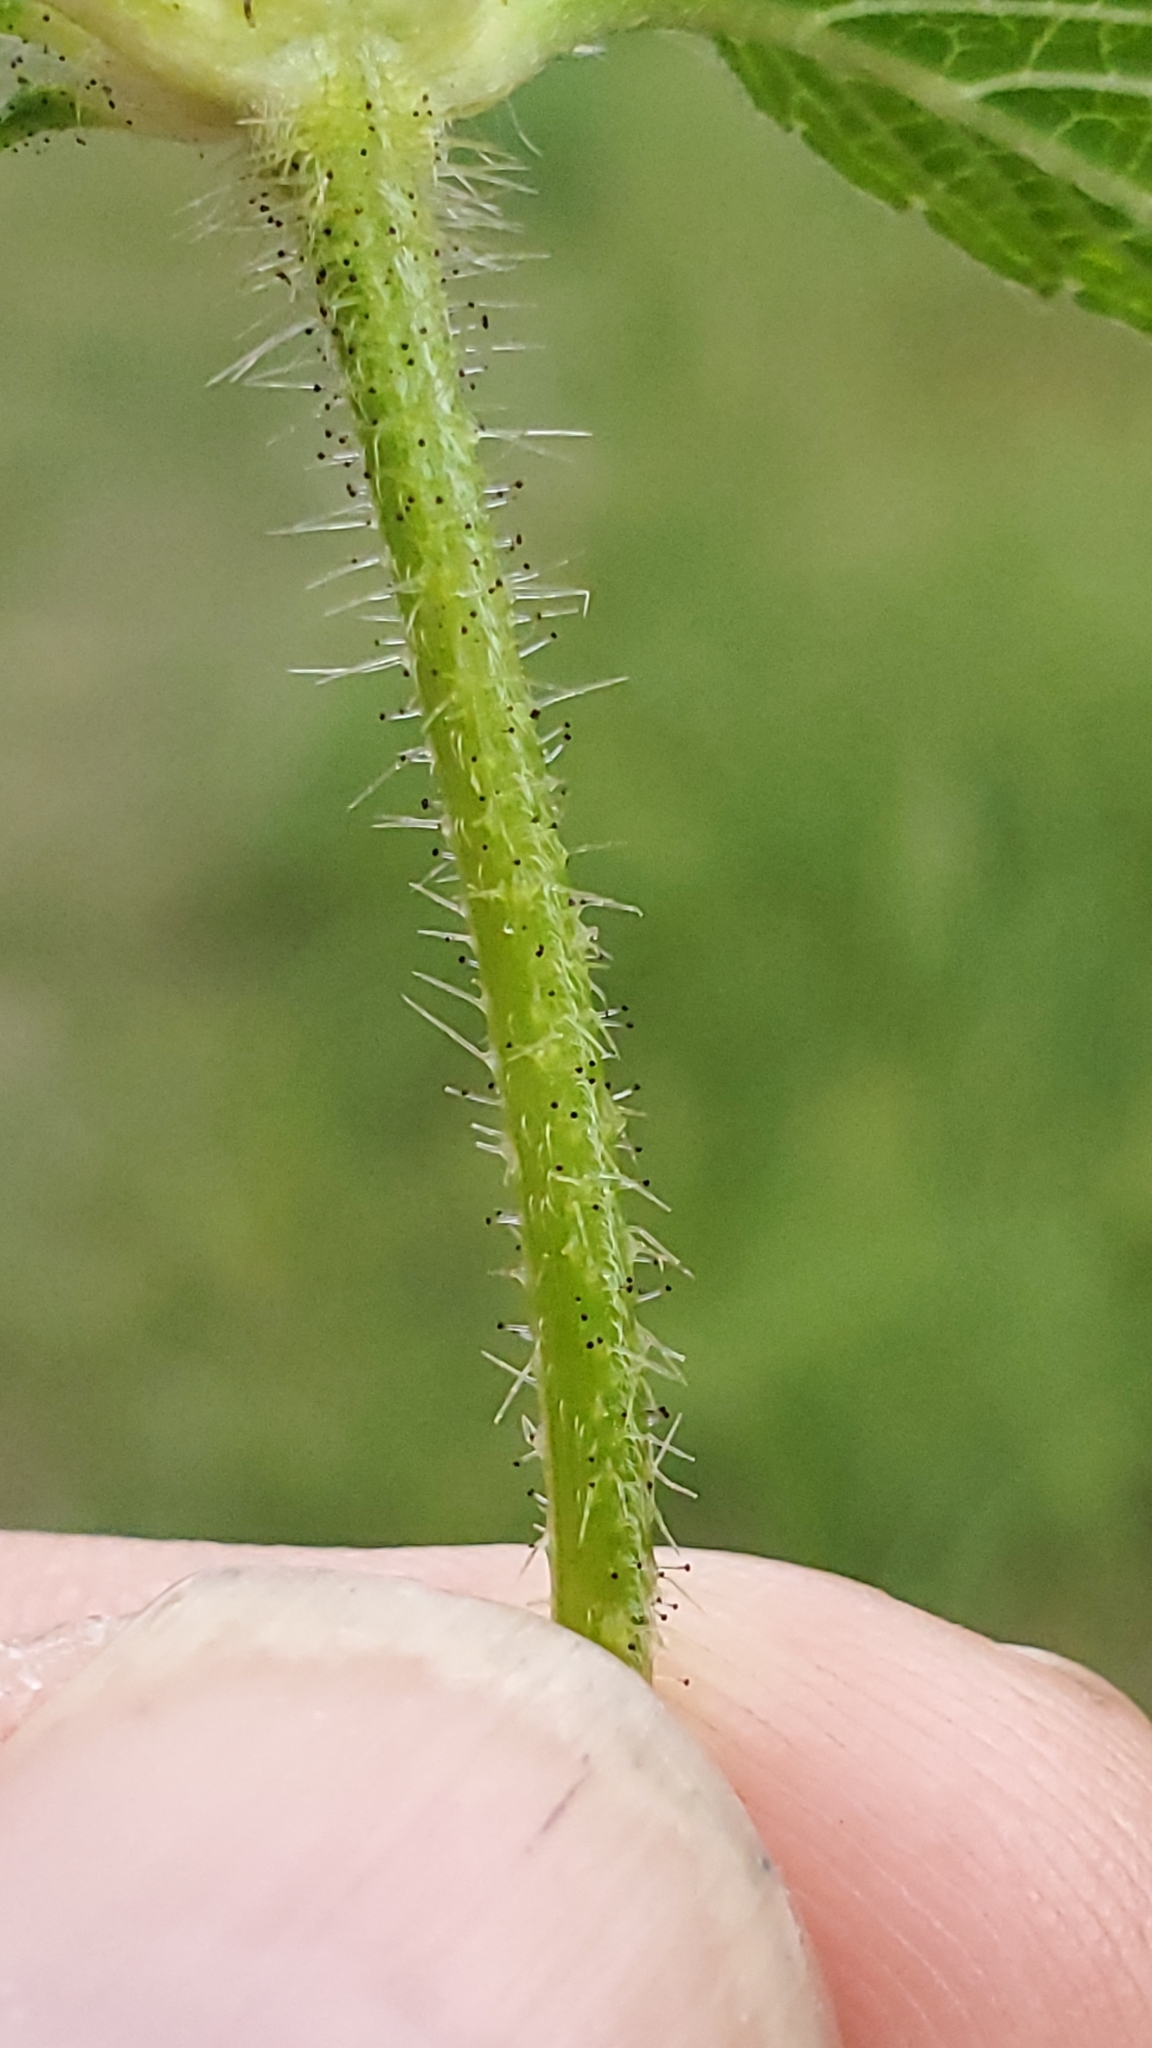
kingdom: Plantae
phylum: Tracheophyta
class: Magnoliopsida
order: Lamiales
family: Lamiaceae
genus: Galeopsis
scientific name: Galeopsis tetrahit
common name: Common hemp-nettle
